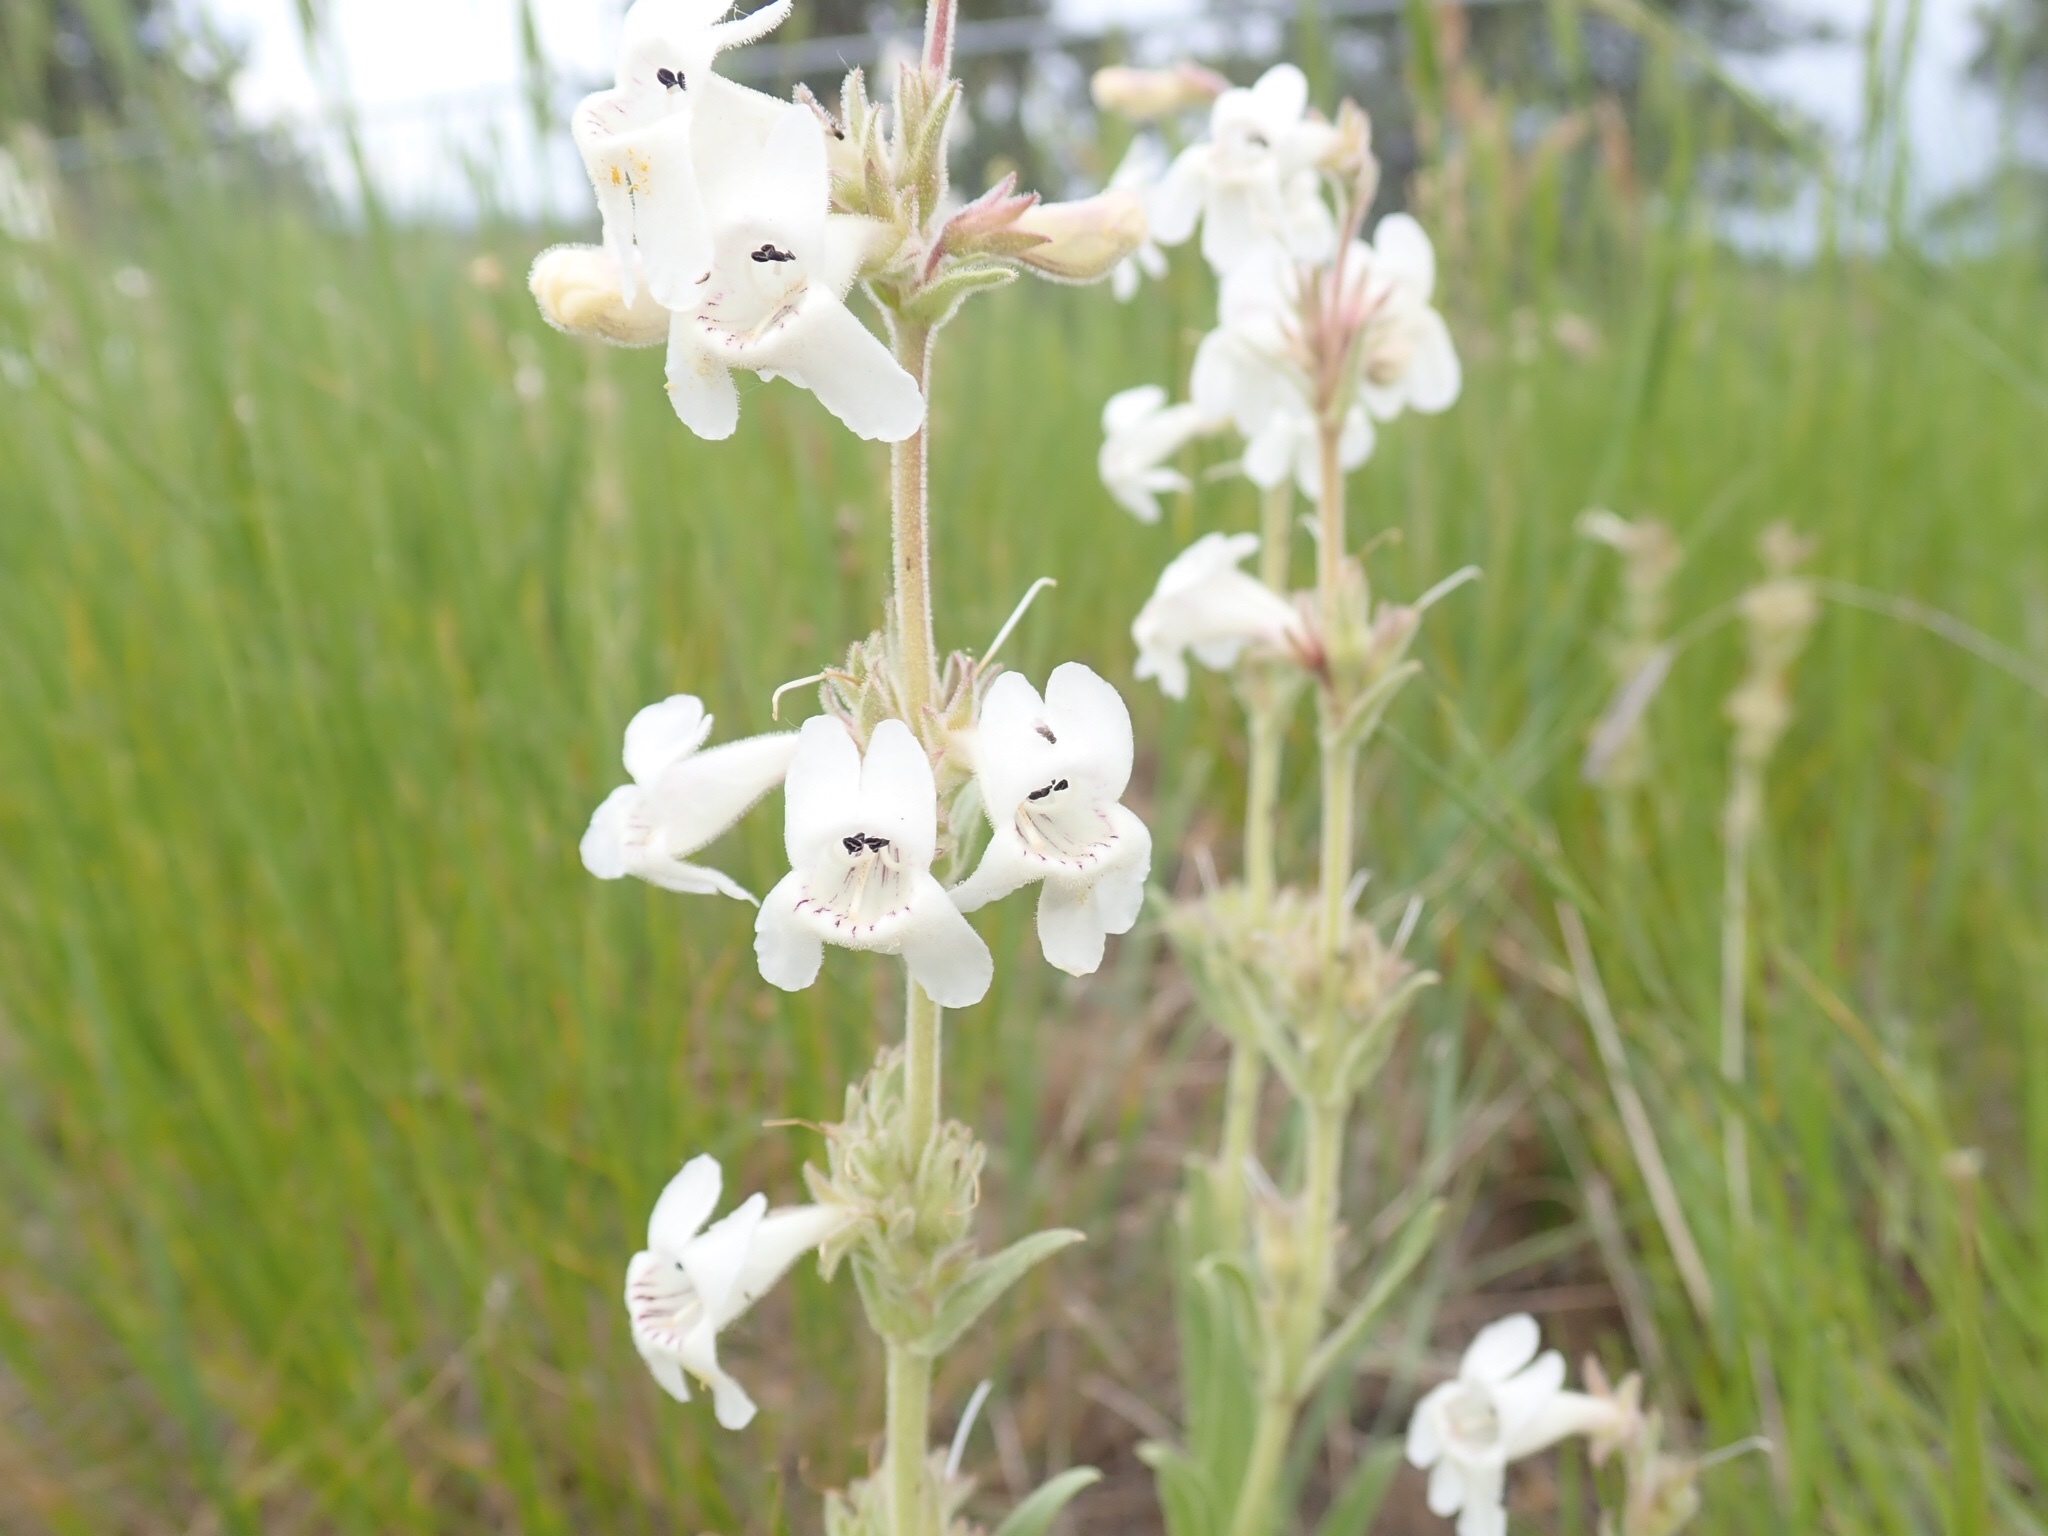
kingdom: Plantae
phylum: Tracheophyta
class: Magnoliopsida
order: Lamiales
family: Plantaginaceae
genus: Penstemon
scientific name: Penstemon albidus
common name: White beardtongue
